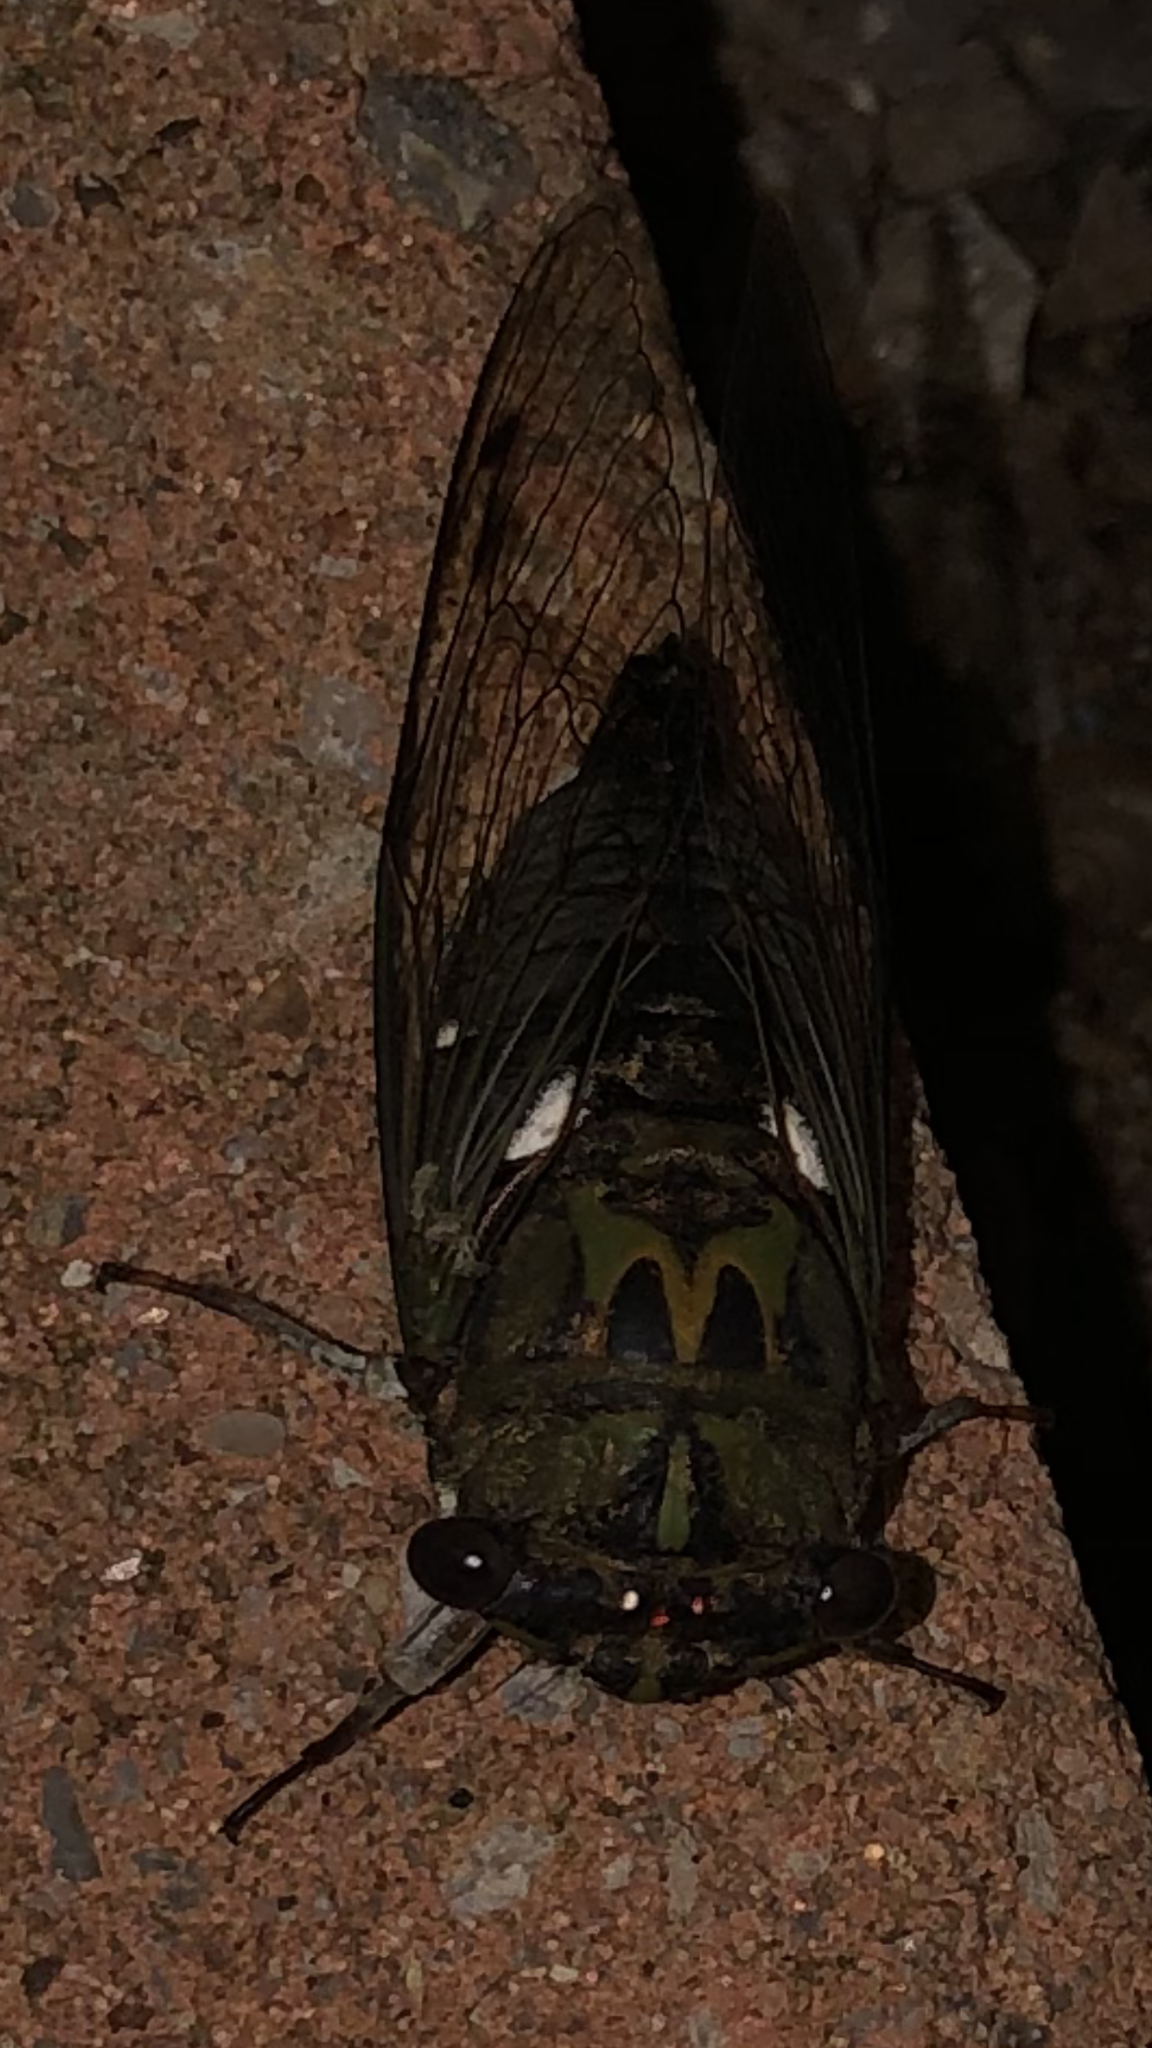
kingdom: Animalia
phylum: Arthropoda
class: Insecta
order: Hemiptera
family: Cicadidae
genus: Neotibicen
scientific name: Neotibicen pruinosus
